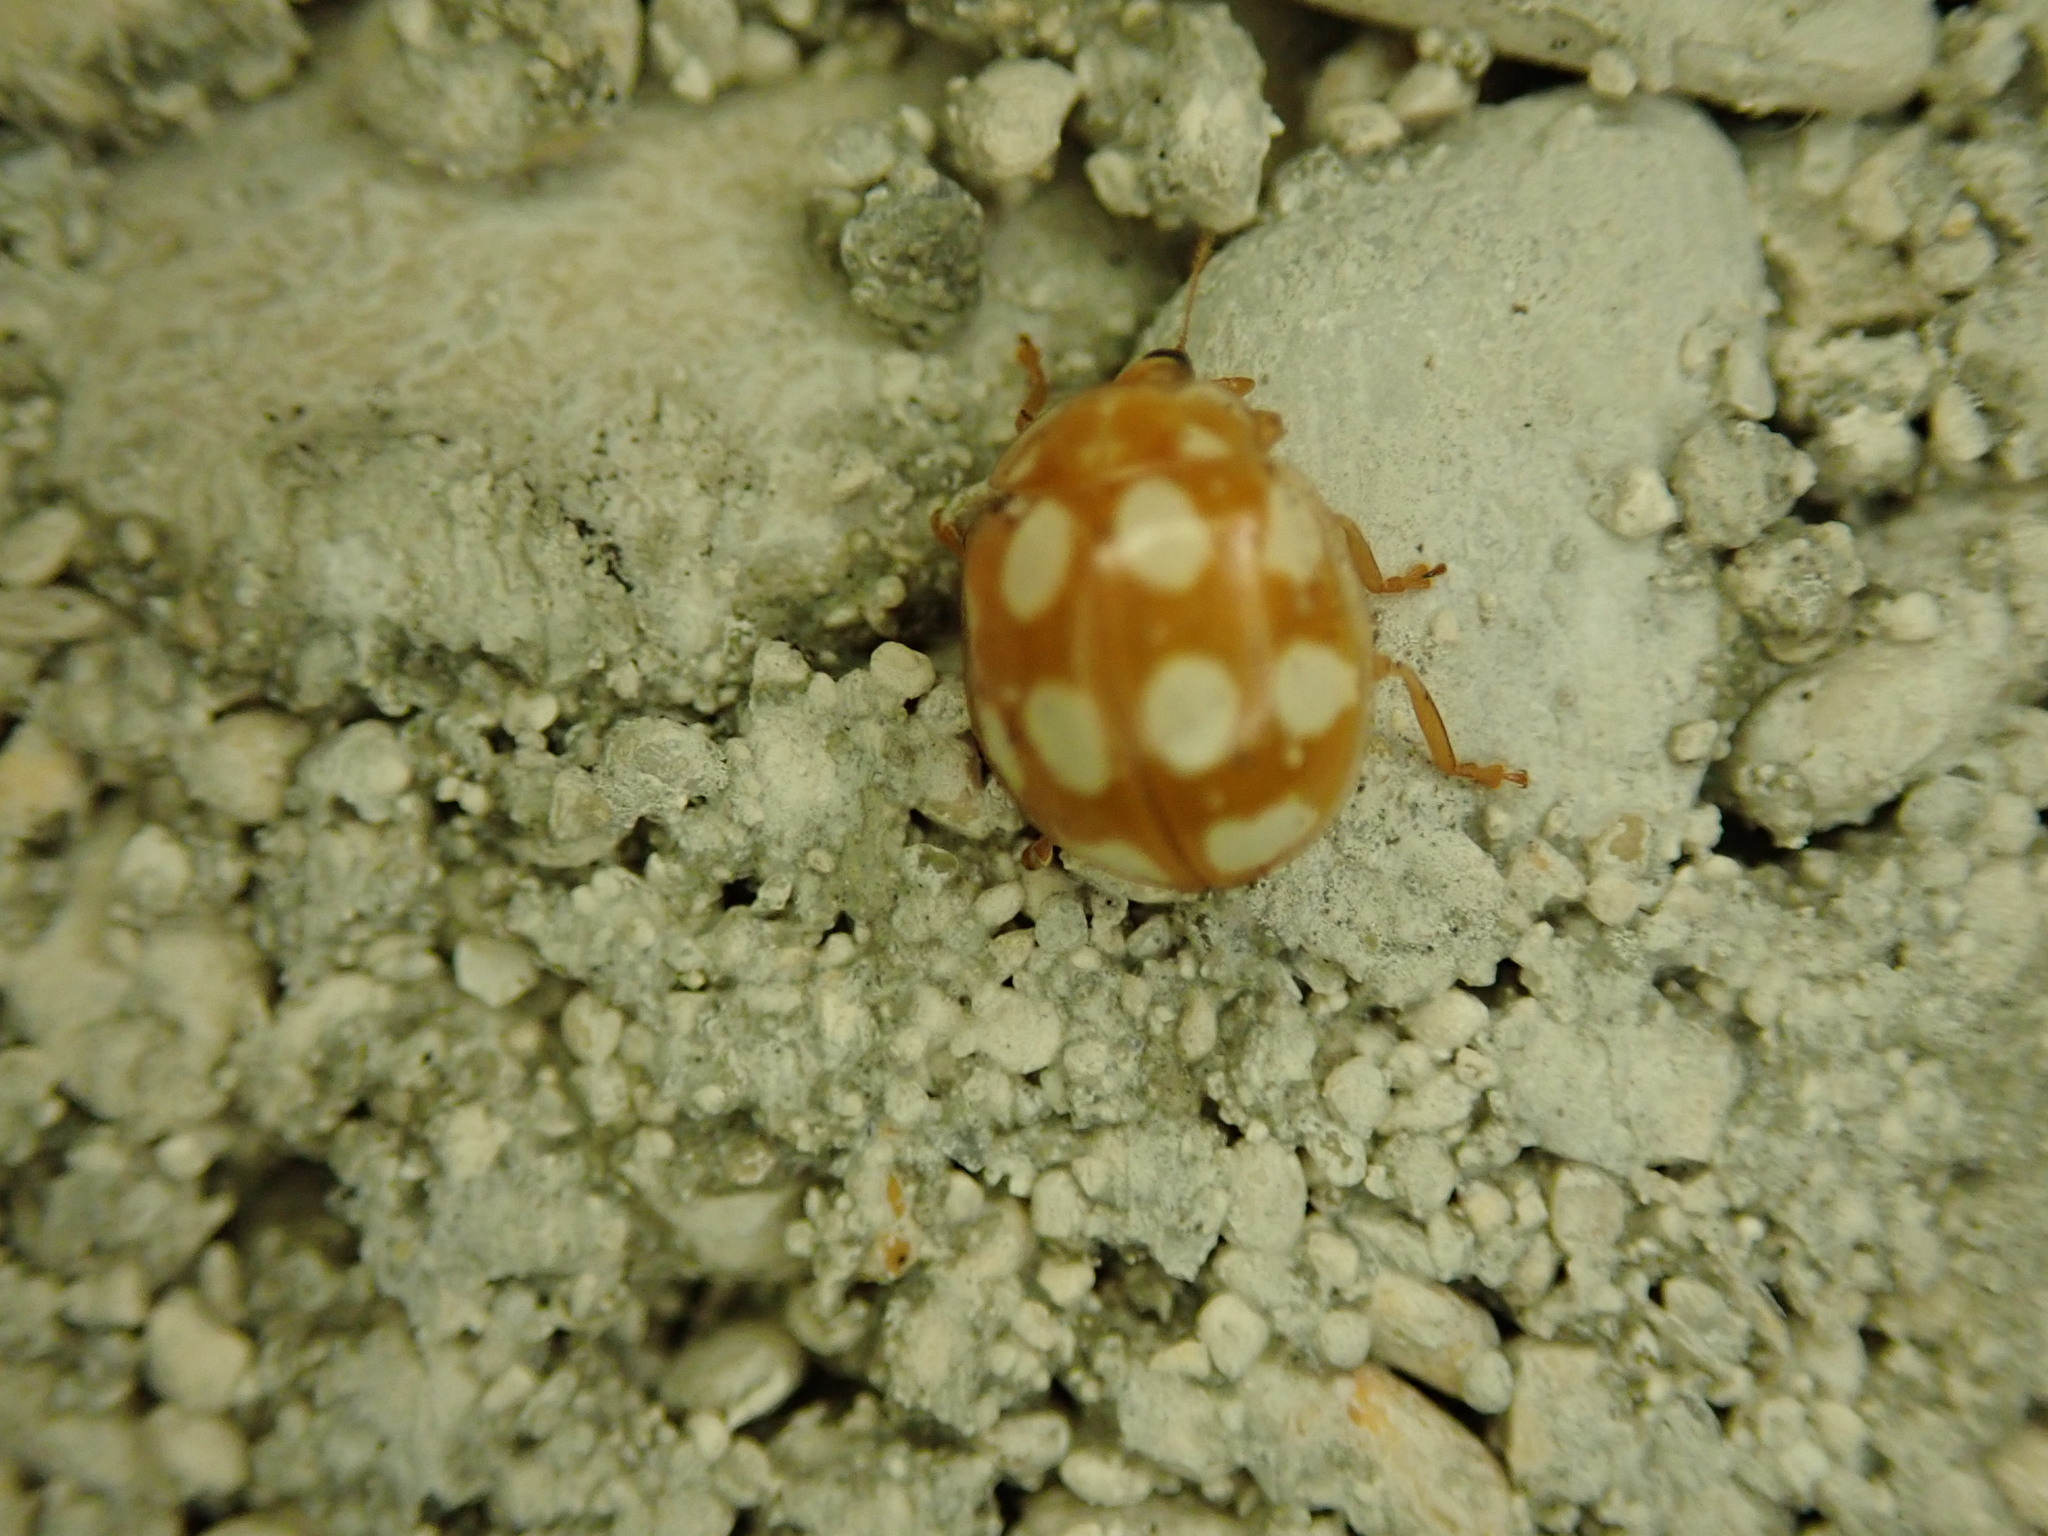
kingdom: Animalia
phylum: Arthropoda
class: Insecta
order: Coleoptera
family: Coccinellidae
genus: Calvia
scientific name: Calvia decemguttata
